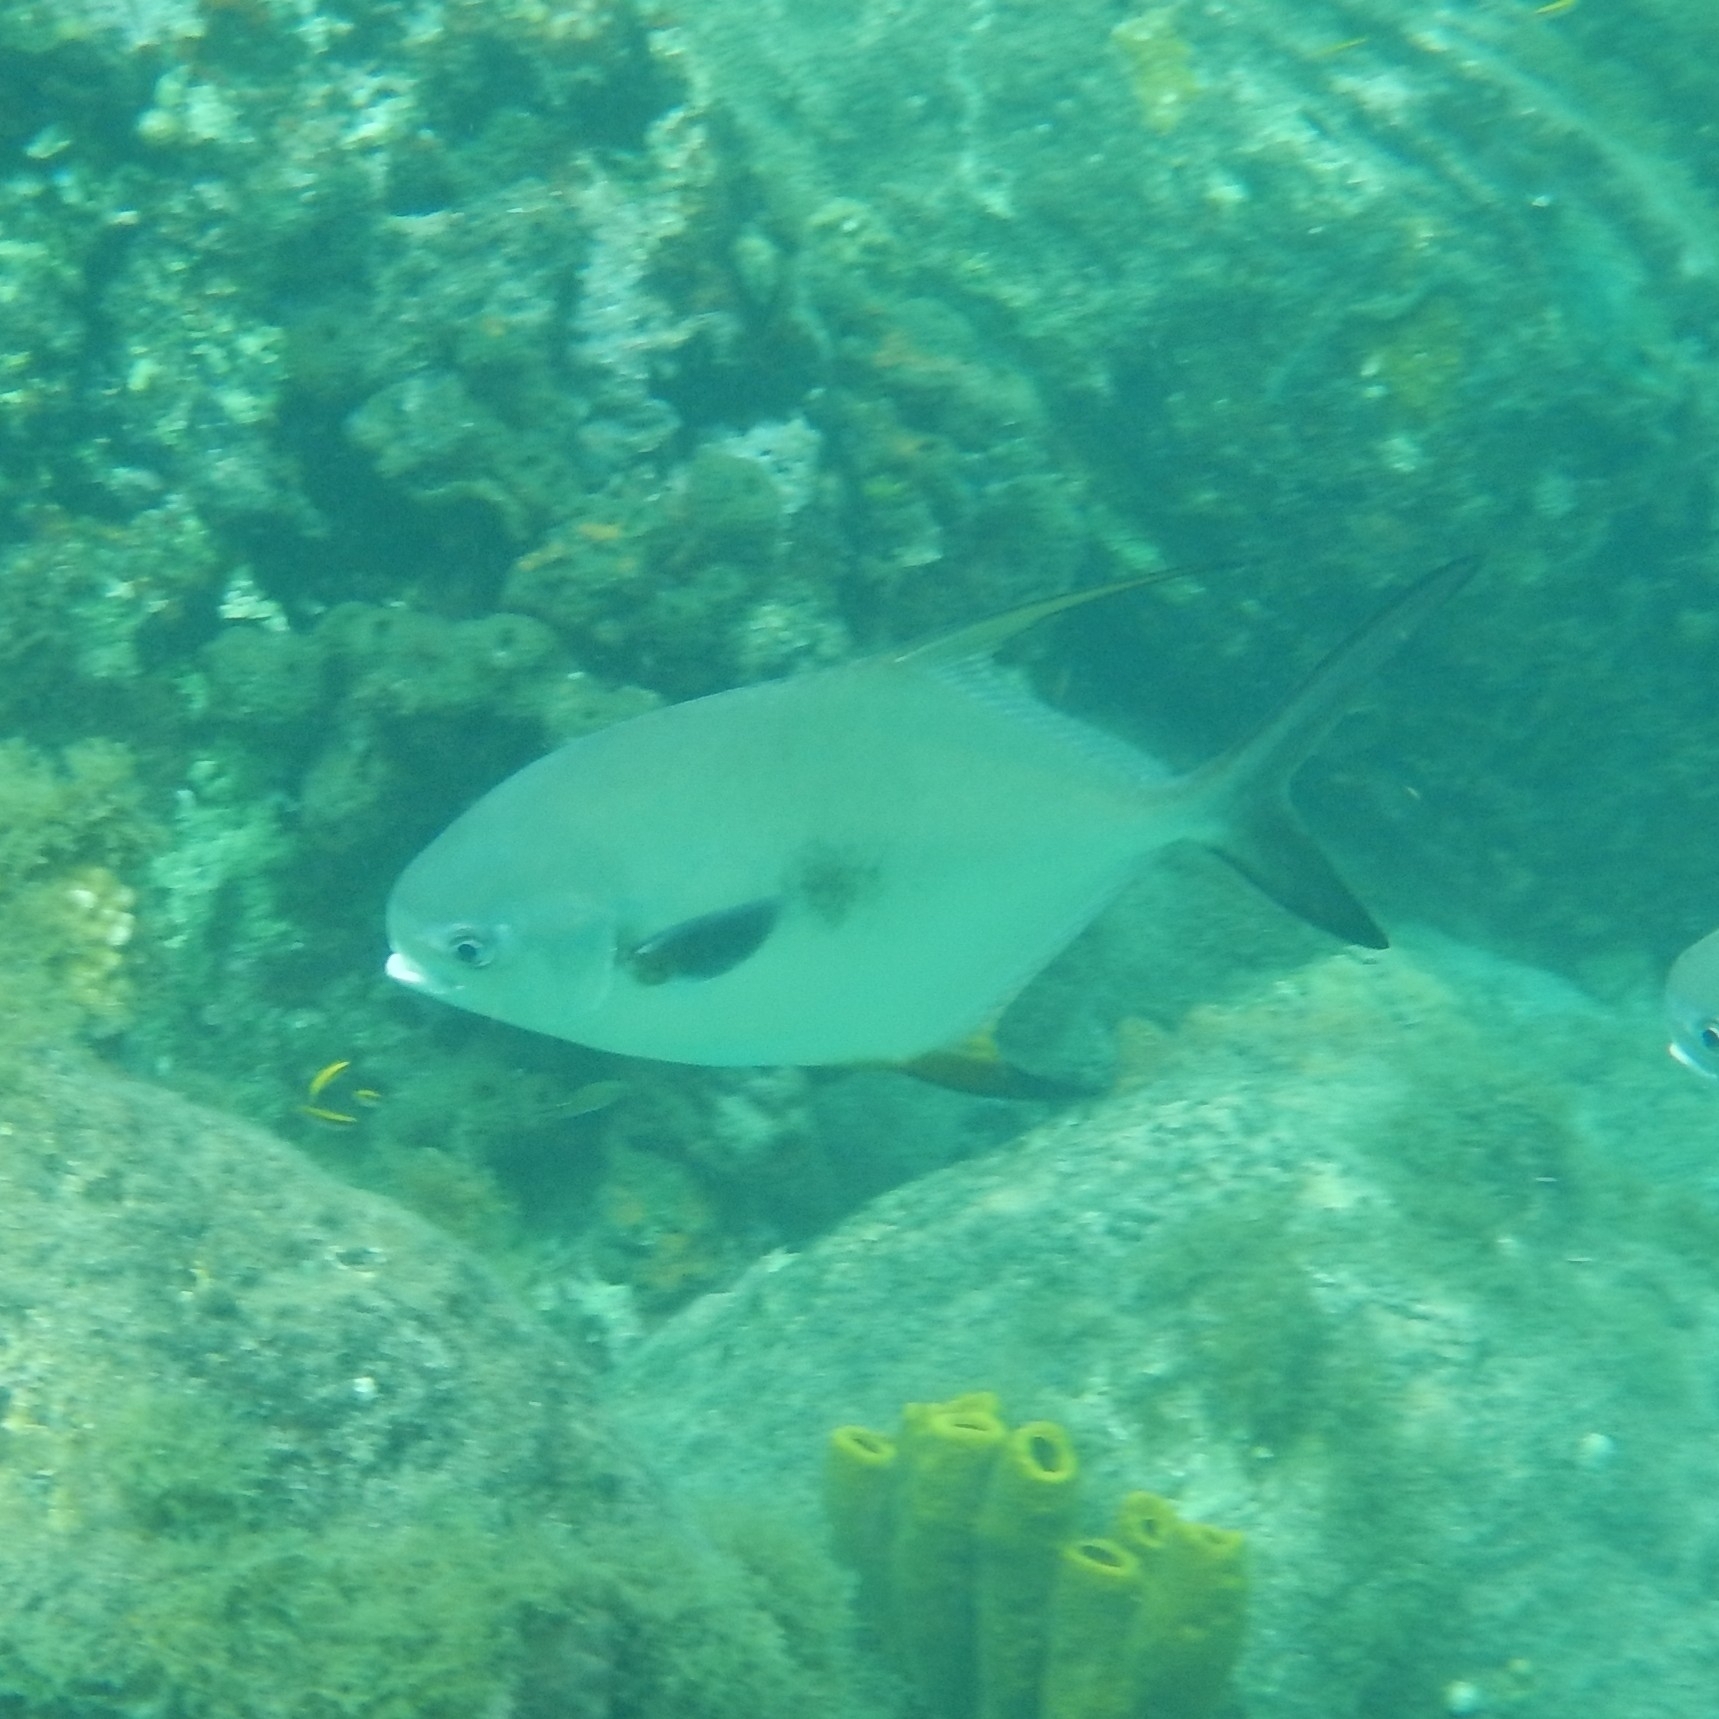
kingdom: Animalia
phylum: Chordata
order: Perciformes
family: Carangidae
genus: Trachinotus
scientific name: Trachinotus falcatus
